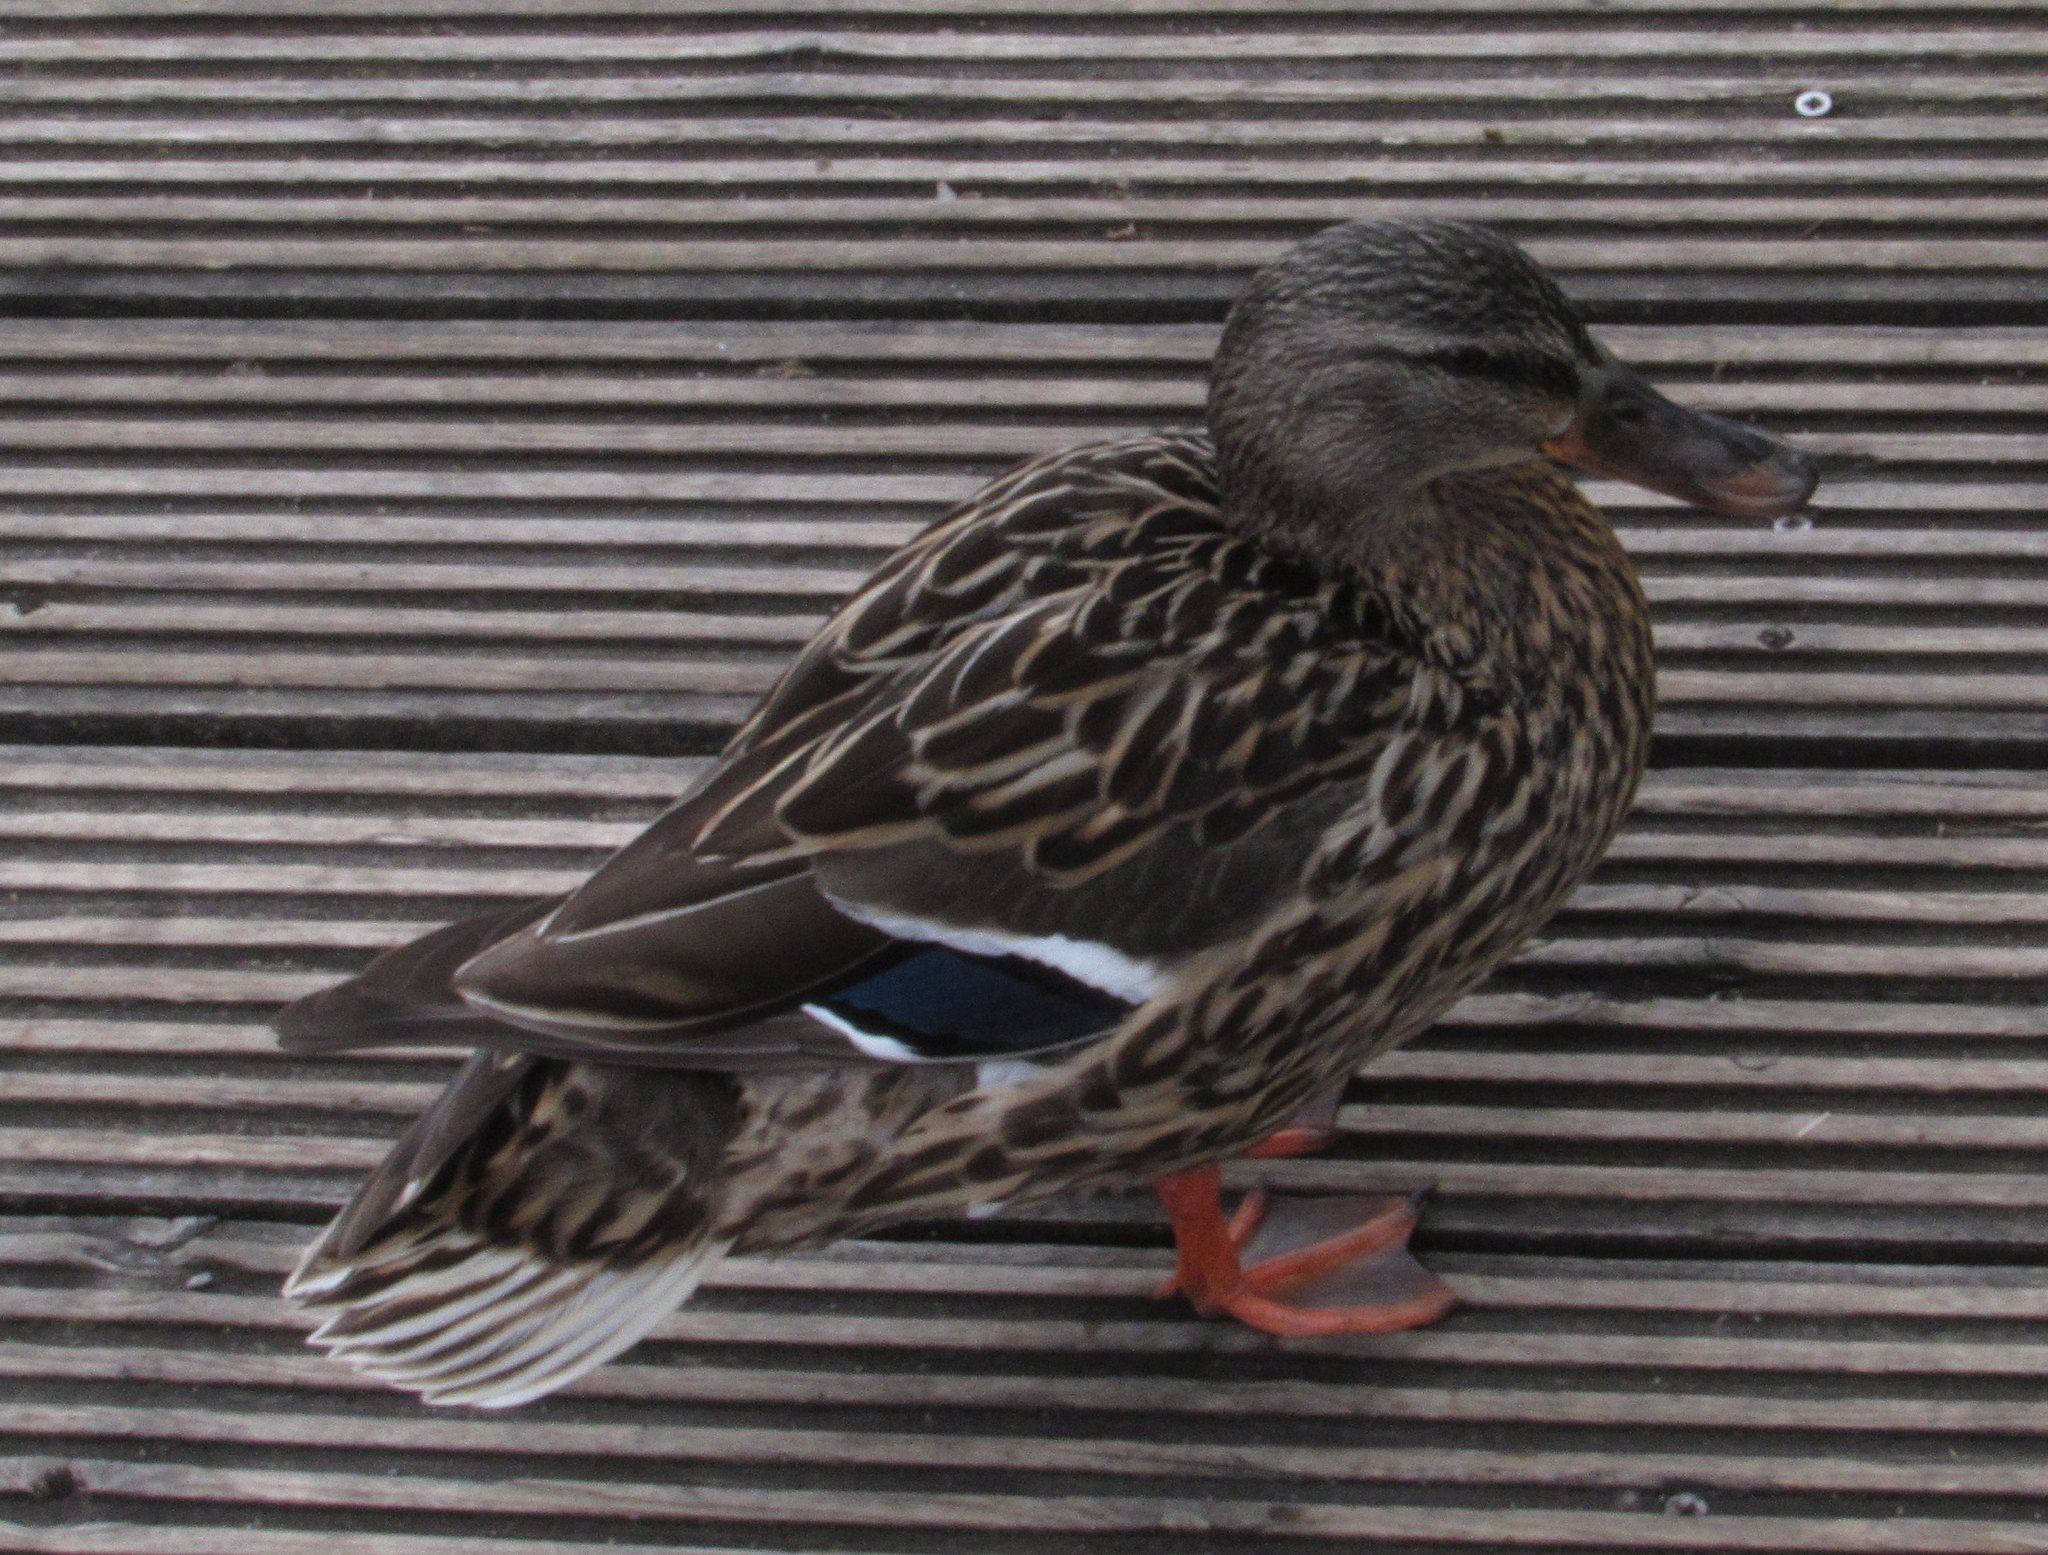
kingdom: Animalia
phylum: Chordata
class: Aves
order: Anseriformes
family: Anatidae
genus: Anas
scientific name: Anas platyrhynchos
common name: Mallard
